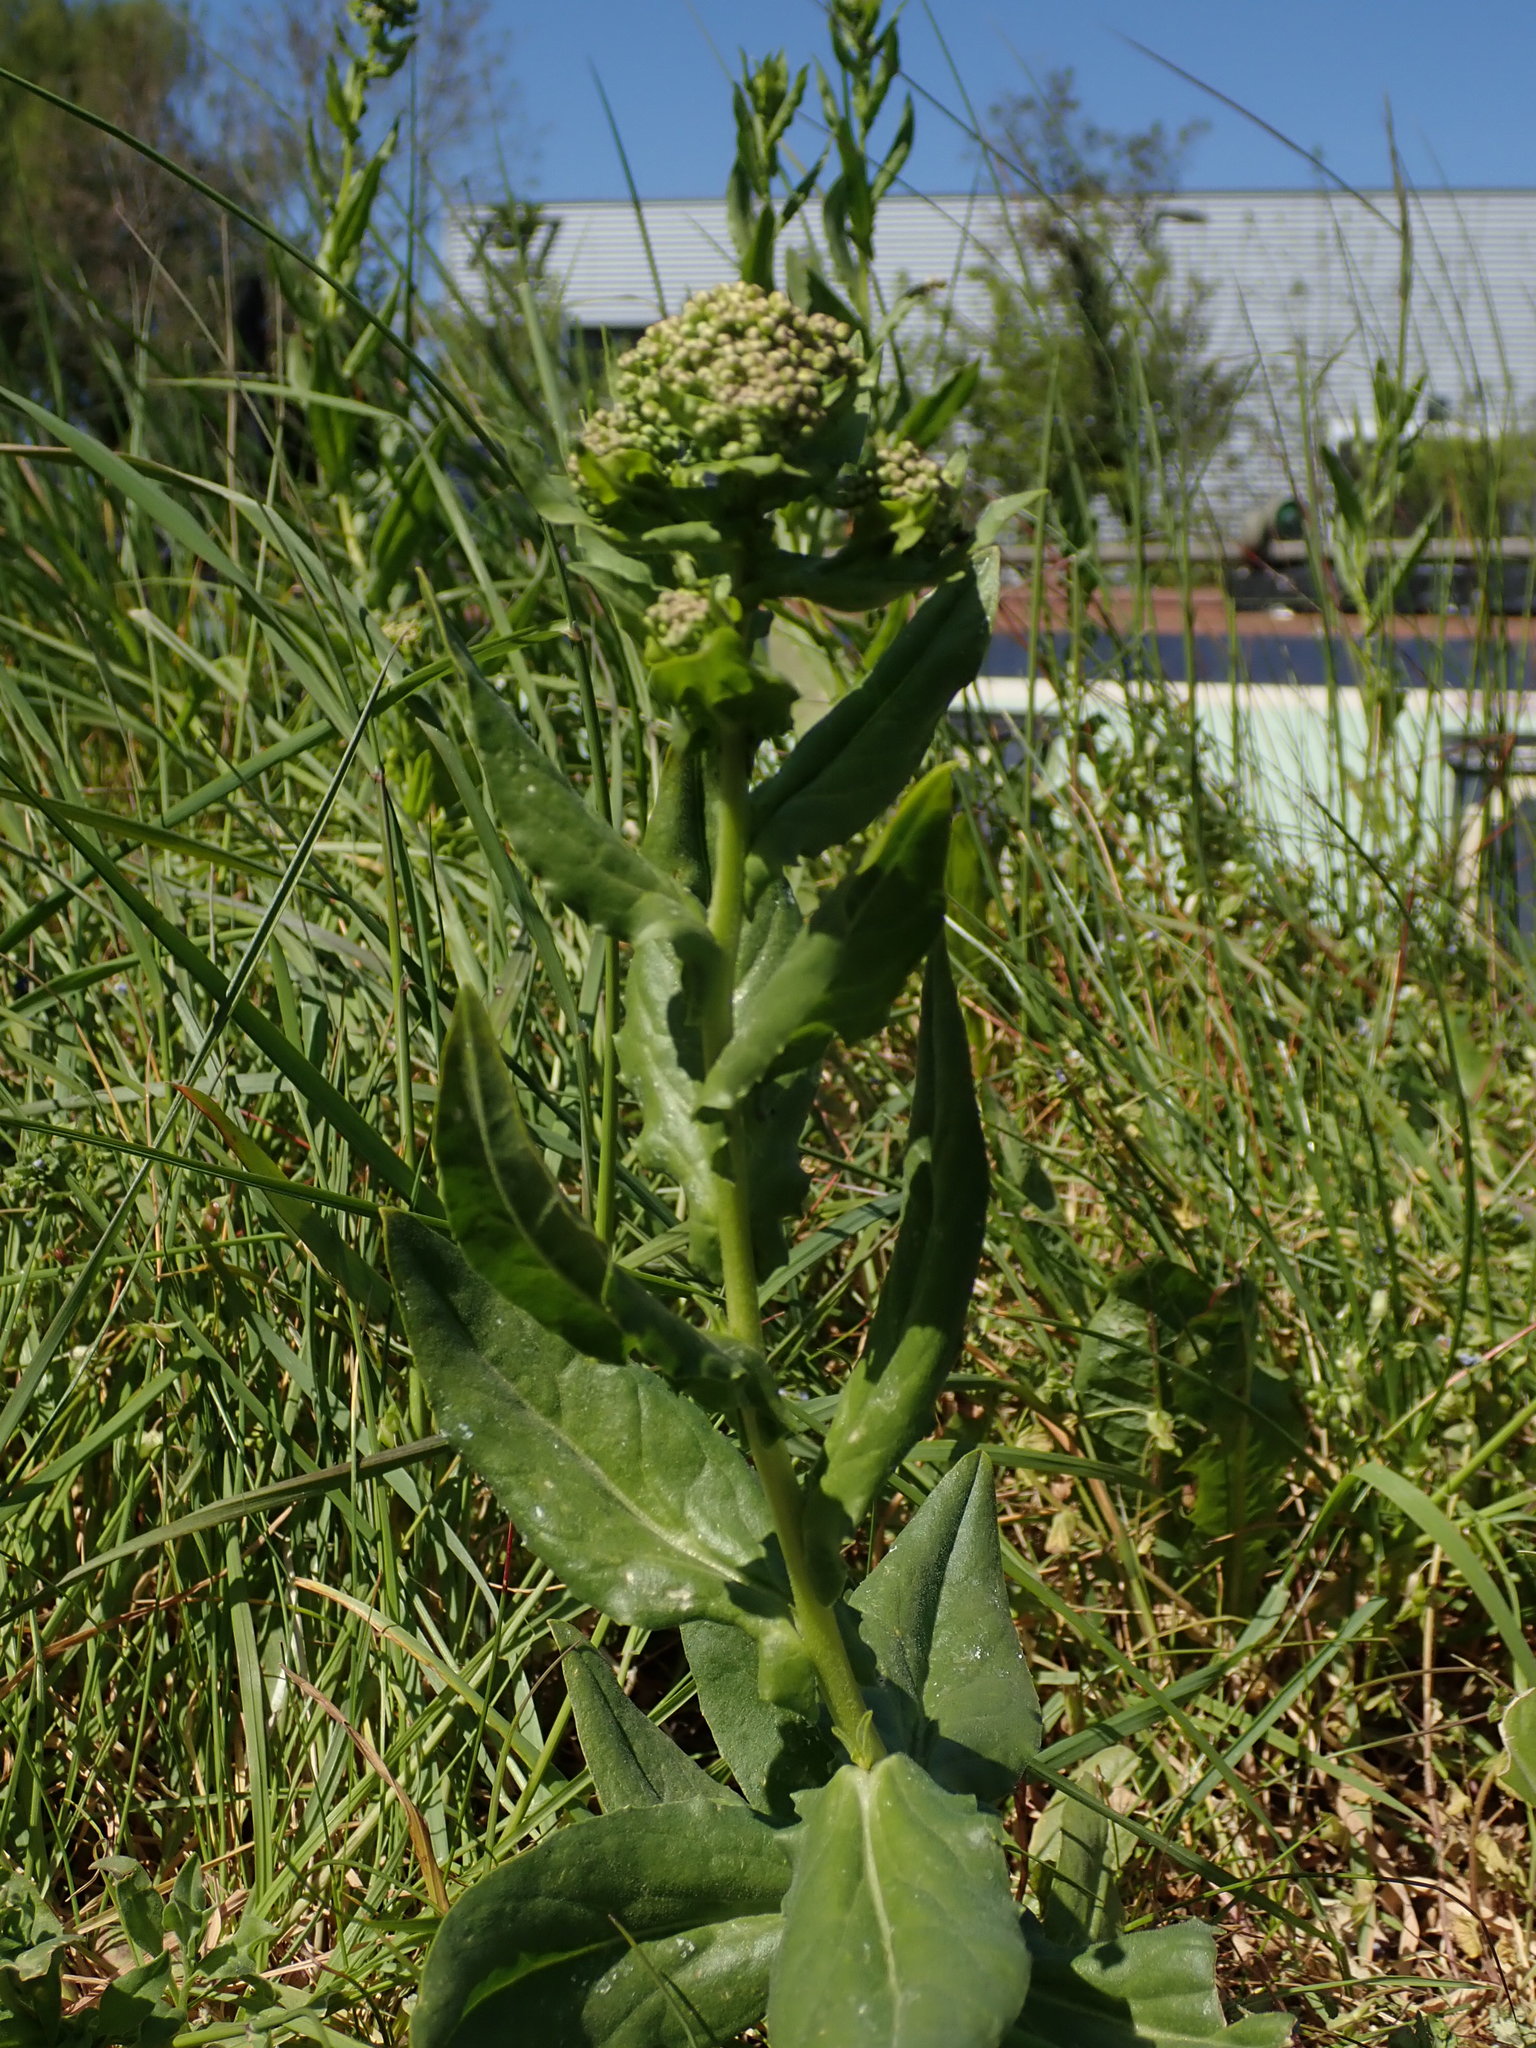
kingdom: Plantae
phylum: Tracheophyta
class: Magnoliopsida
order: Brassicales
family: Brassicaceae
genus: Lepidium
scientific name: Lepidium draba
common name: Hoary cress
